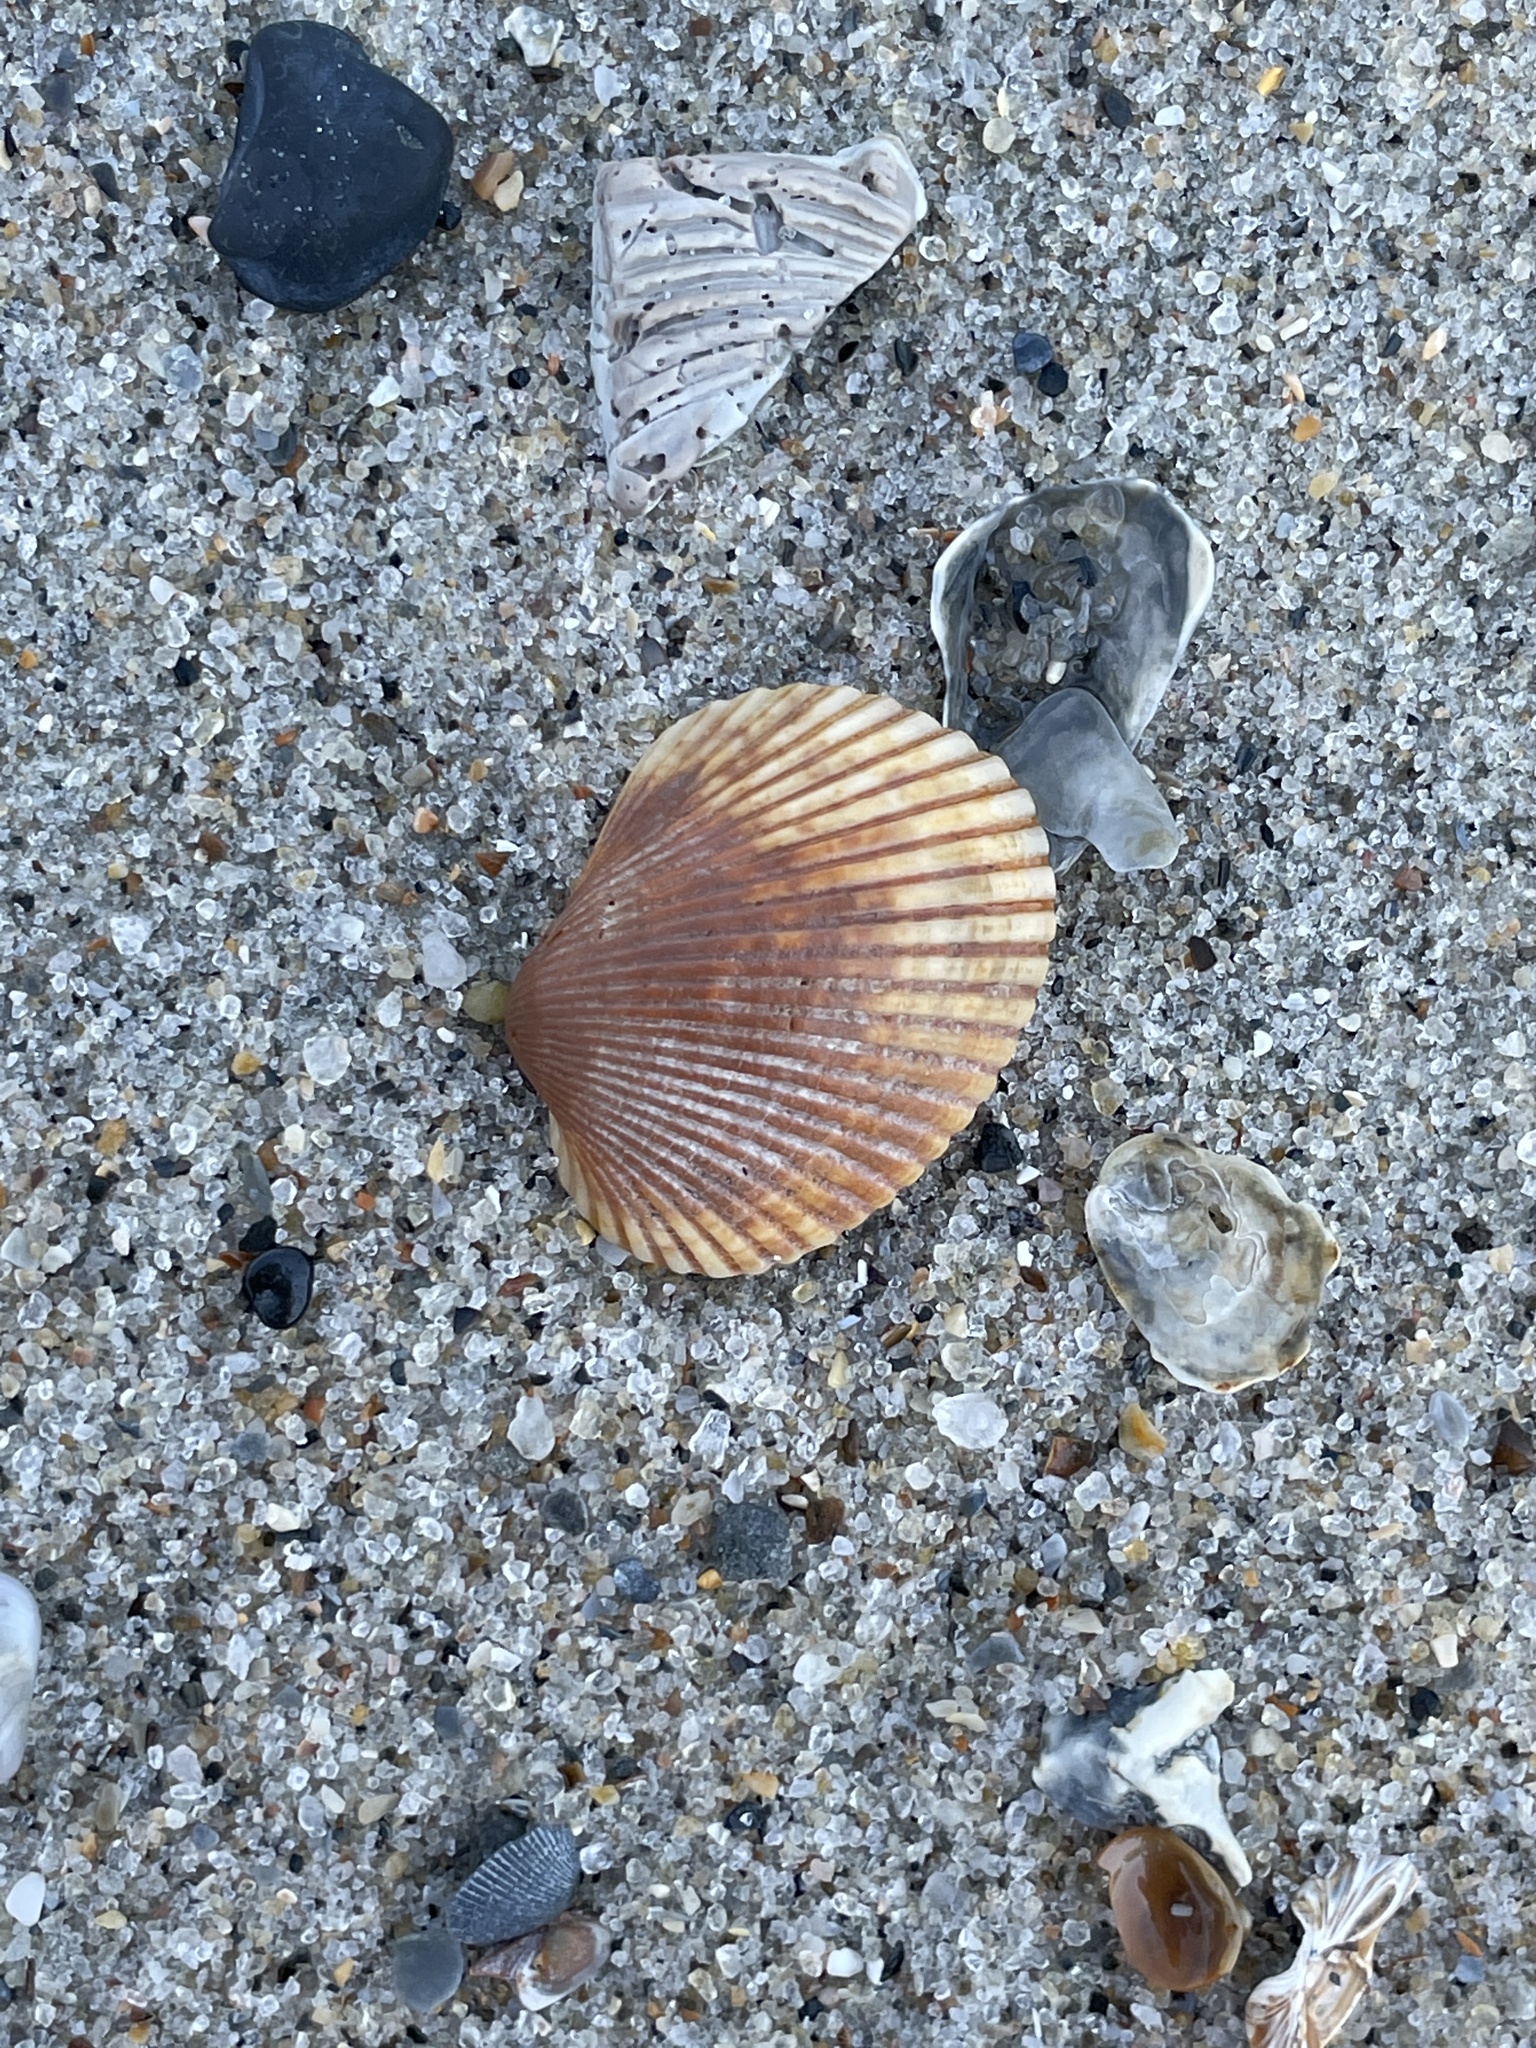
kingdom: Animalia
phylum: Mollusca
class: Bivalvia
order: Arcida
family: Arcidae
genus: Lunarca
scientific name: Lunarca ovalis
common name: Blood ark
